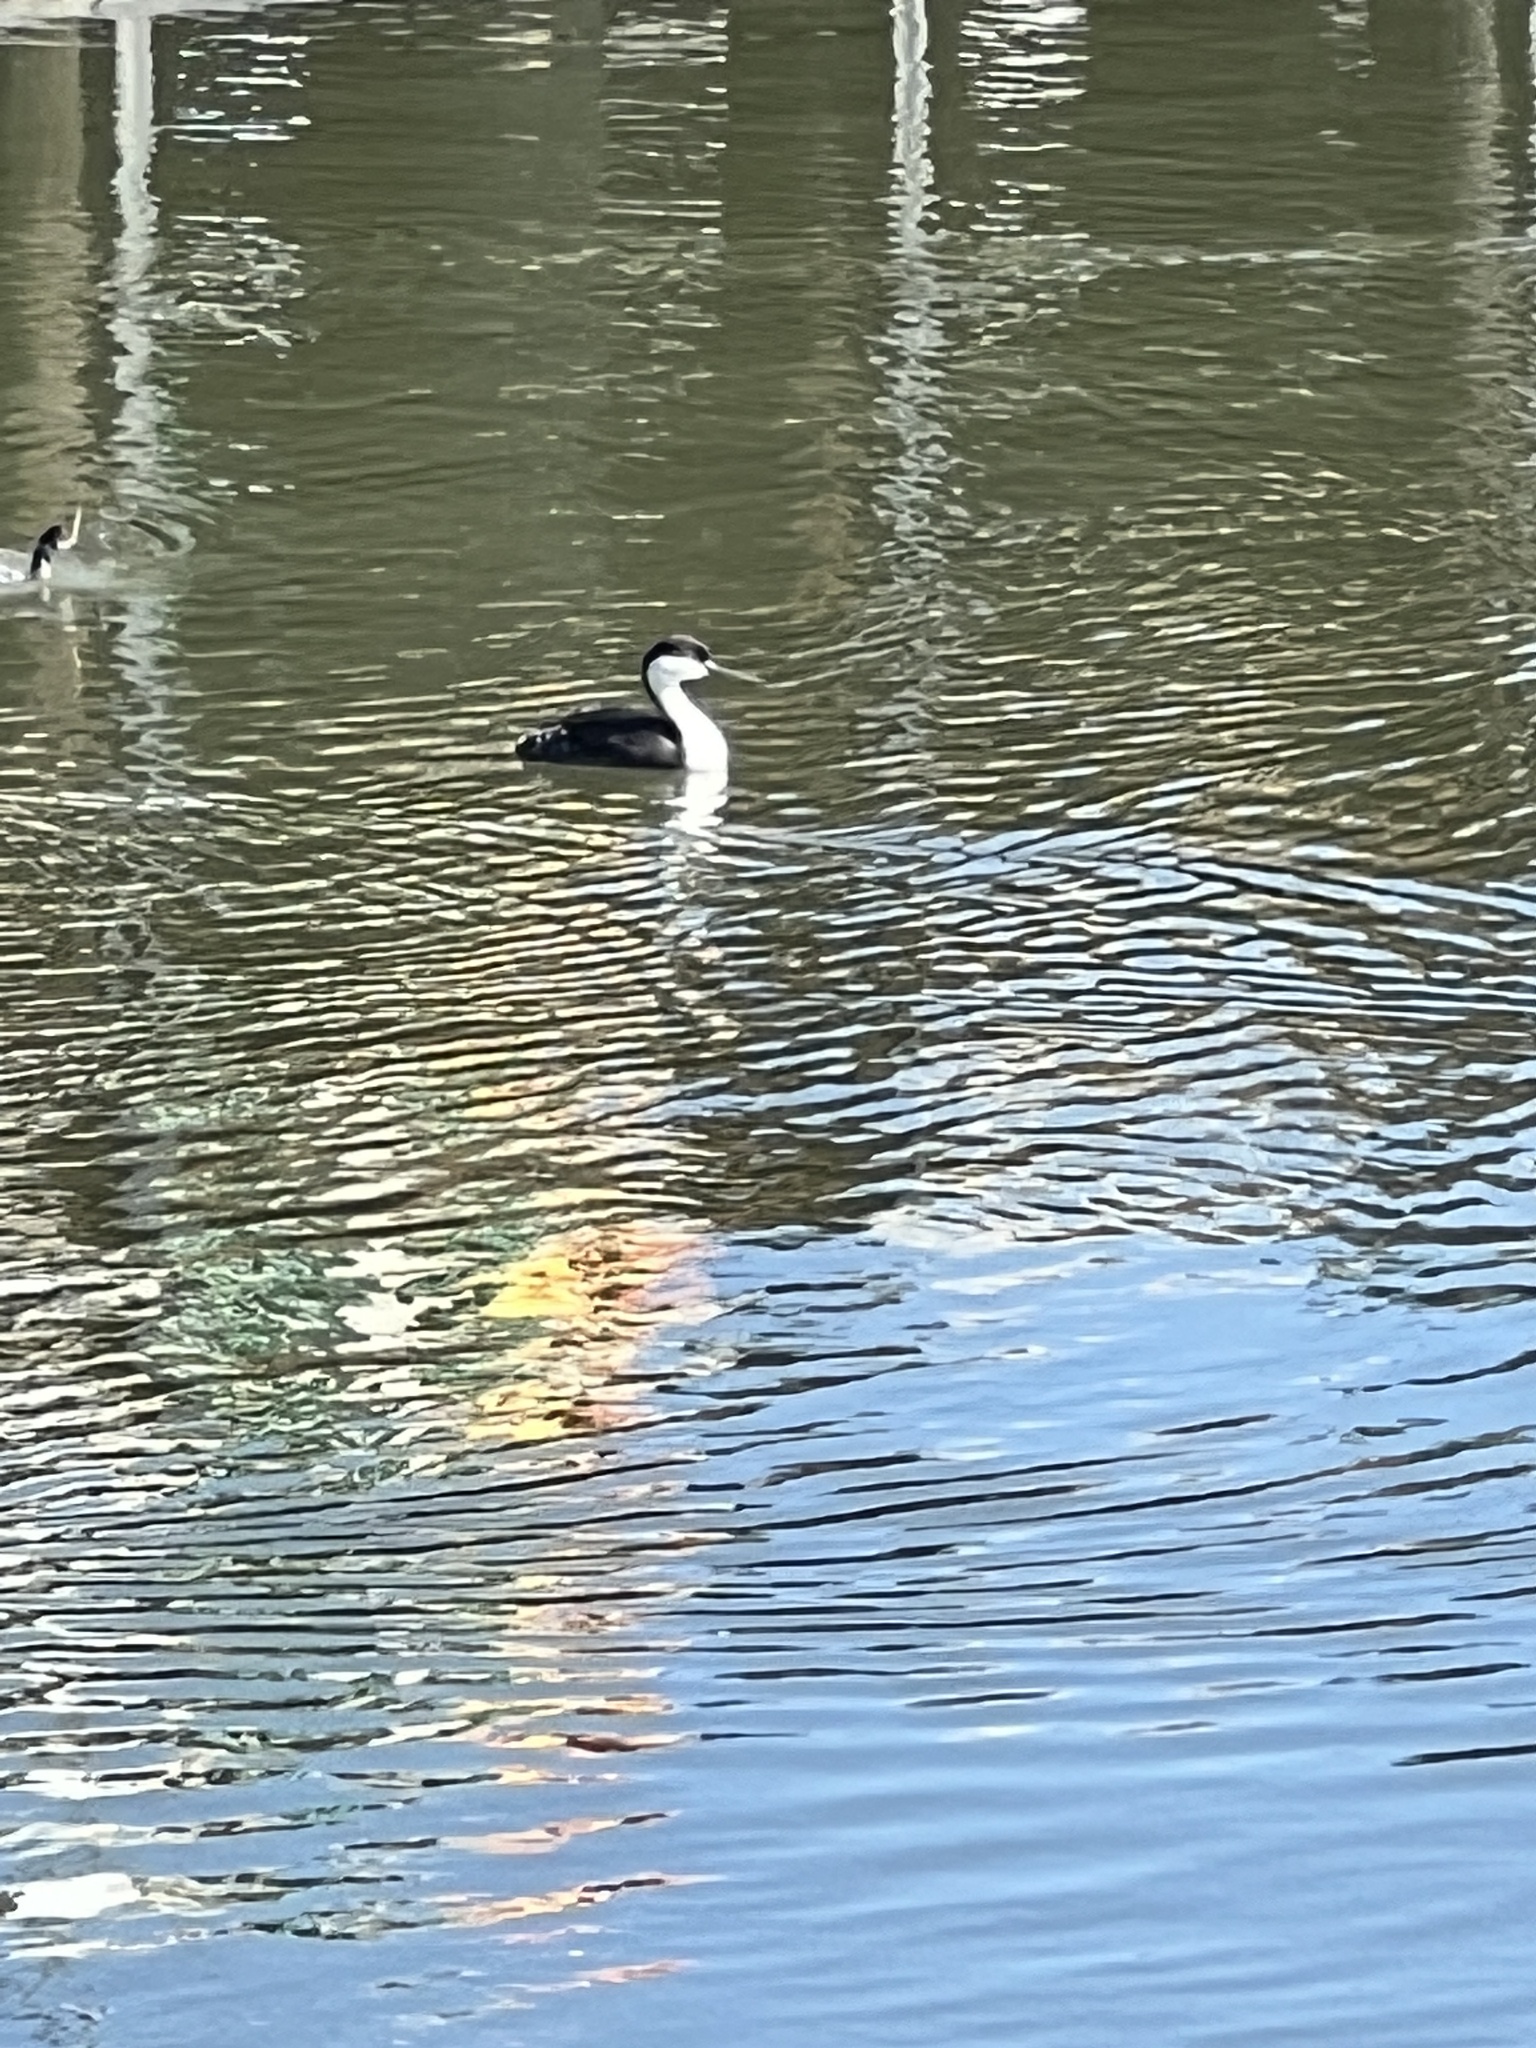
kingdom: Animalia
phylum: Chordata
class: Aves
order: Podicipediformes
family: Podicipedidae
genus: Aechmophorus
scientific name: Aechmophorus occidentalis
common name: Western grebe
